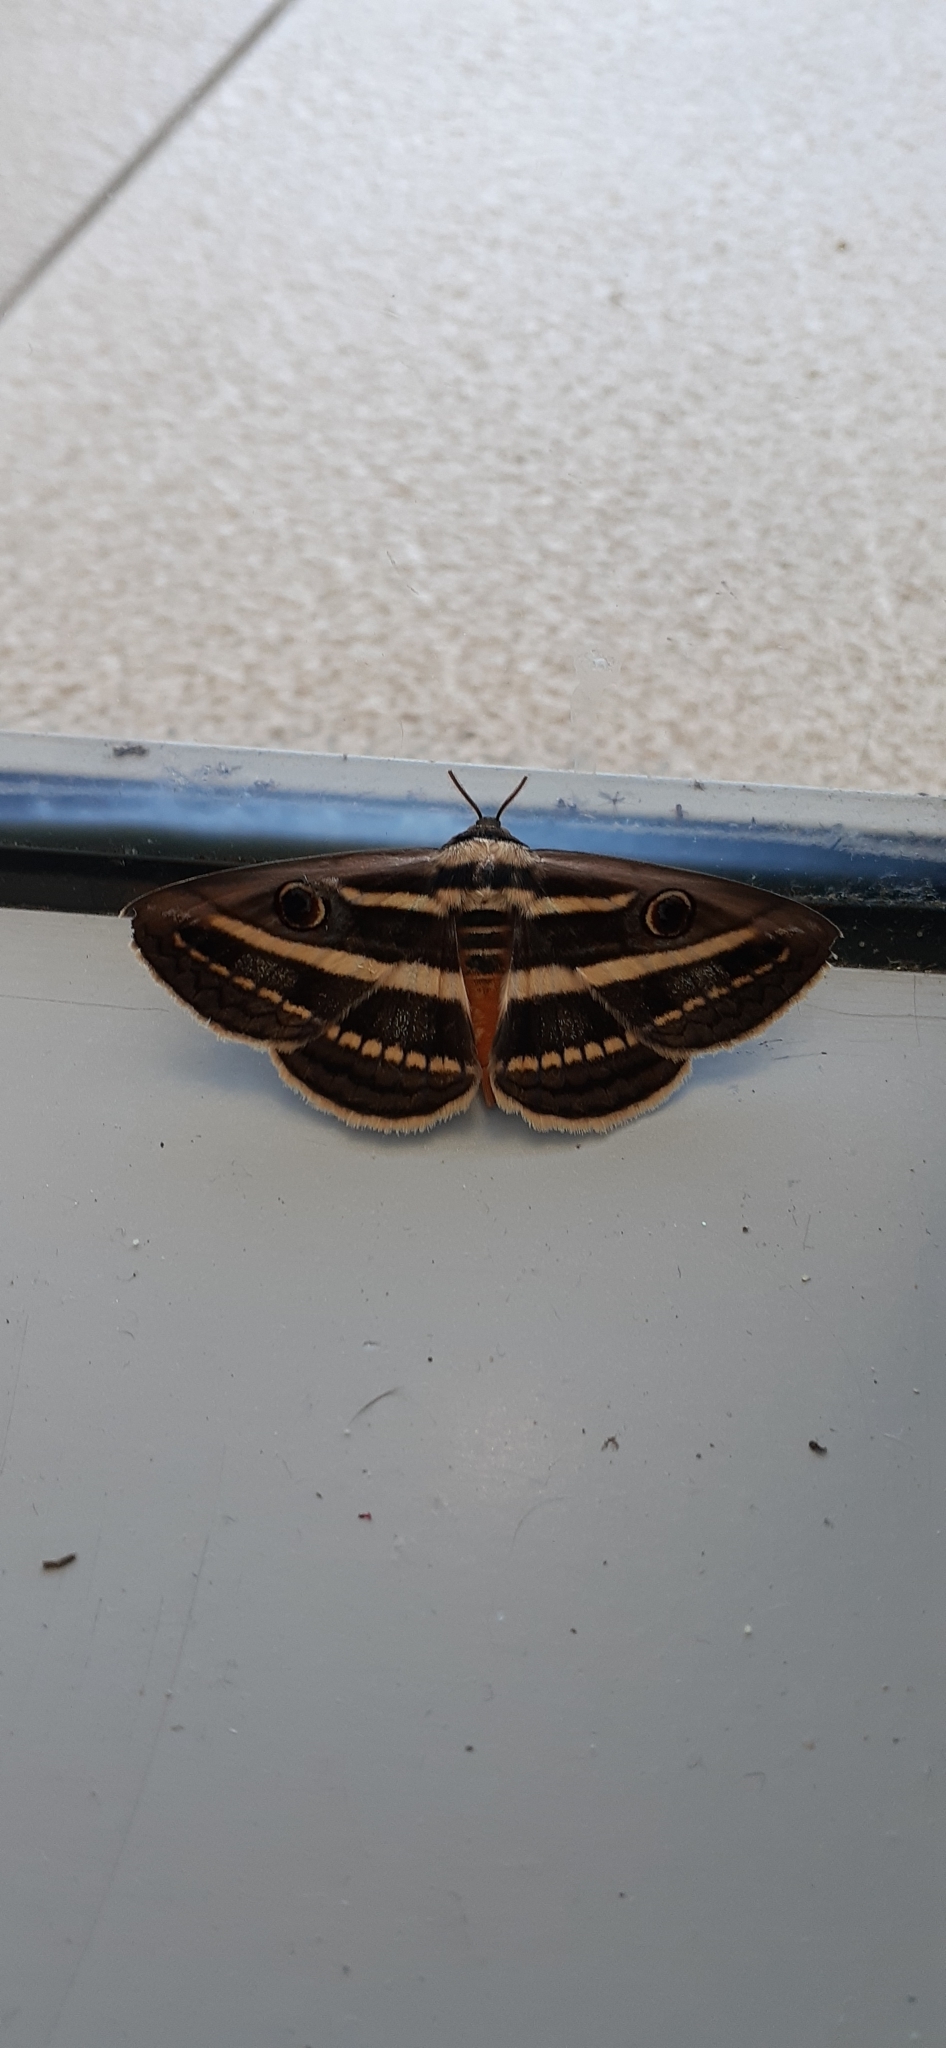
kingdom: Animalia
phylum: Arthropoda
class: Insecta
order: Lepidoptera
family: Erebidae
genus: Donuca
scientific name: Donuca orbigera
